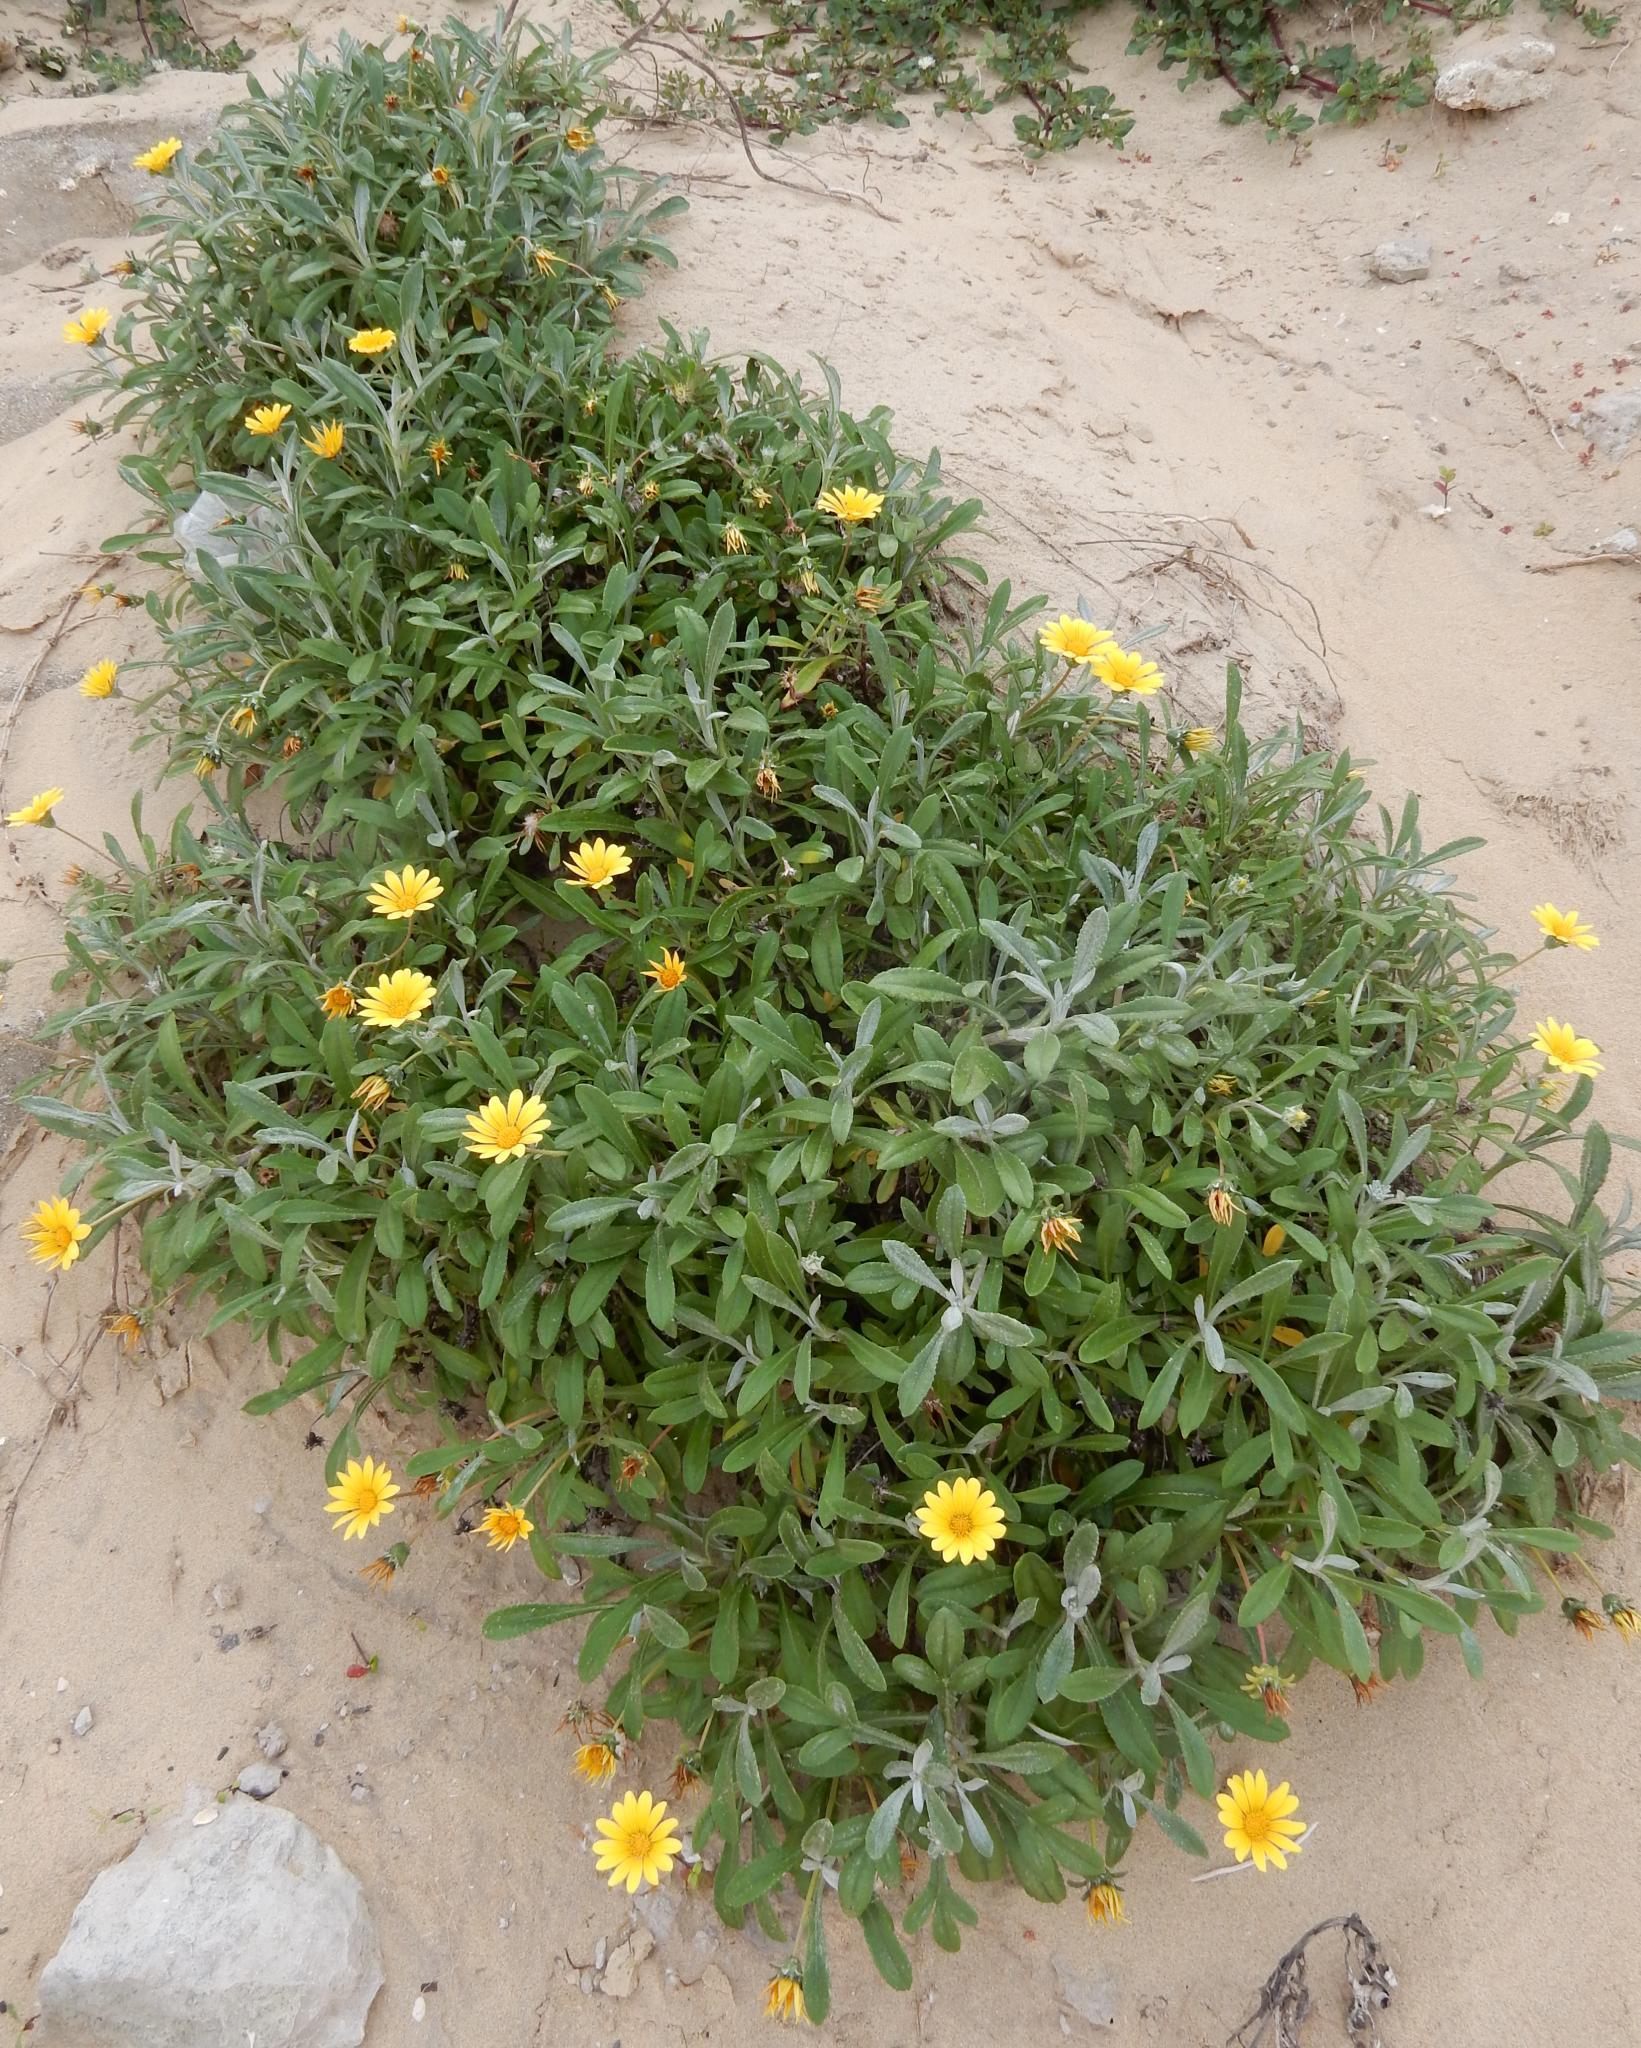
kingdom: Plantae
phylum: Tracheophyta
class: Magnoliopsida
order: Asterales
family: Asteraceae
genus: Gazania
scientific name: Gazania rigens
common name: Treasureflower
